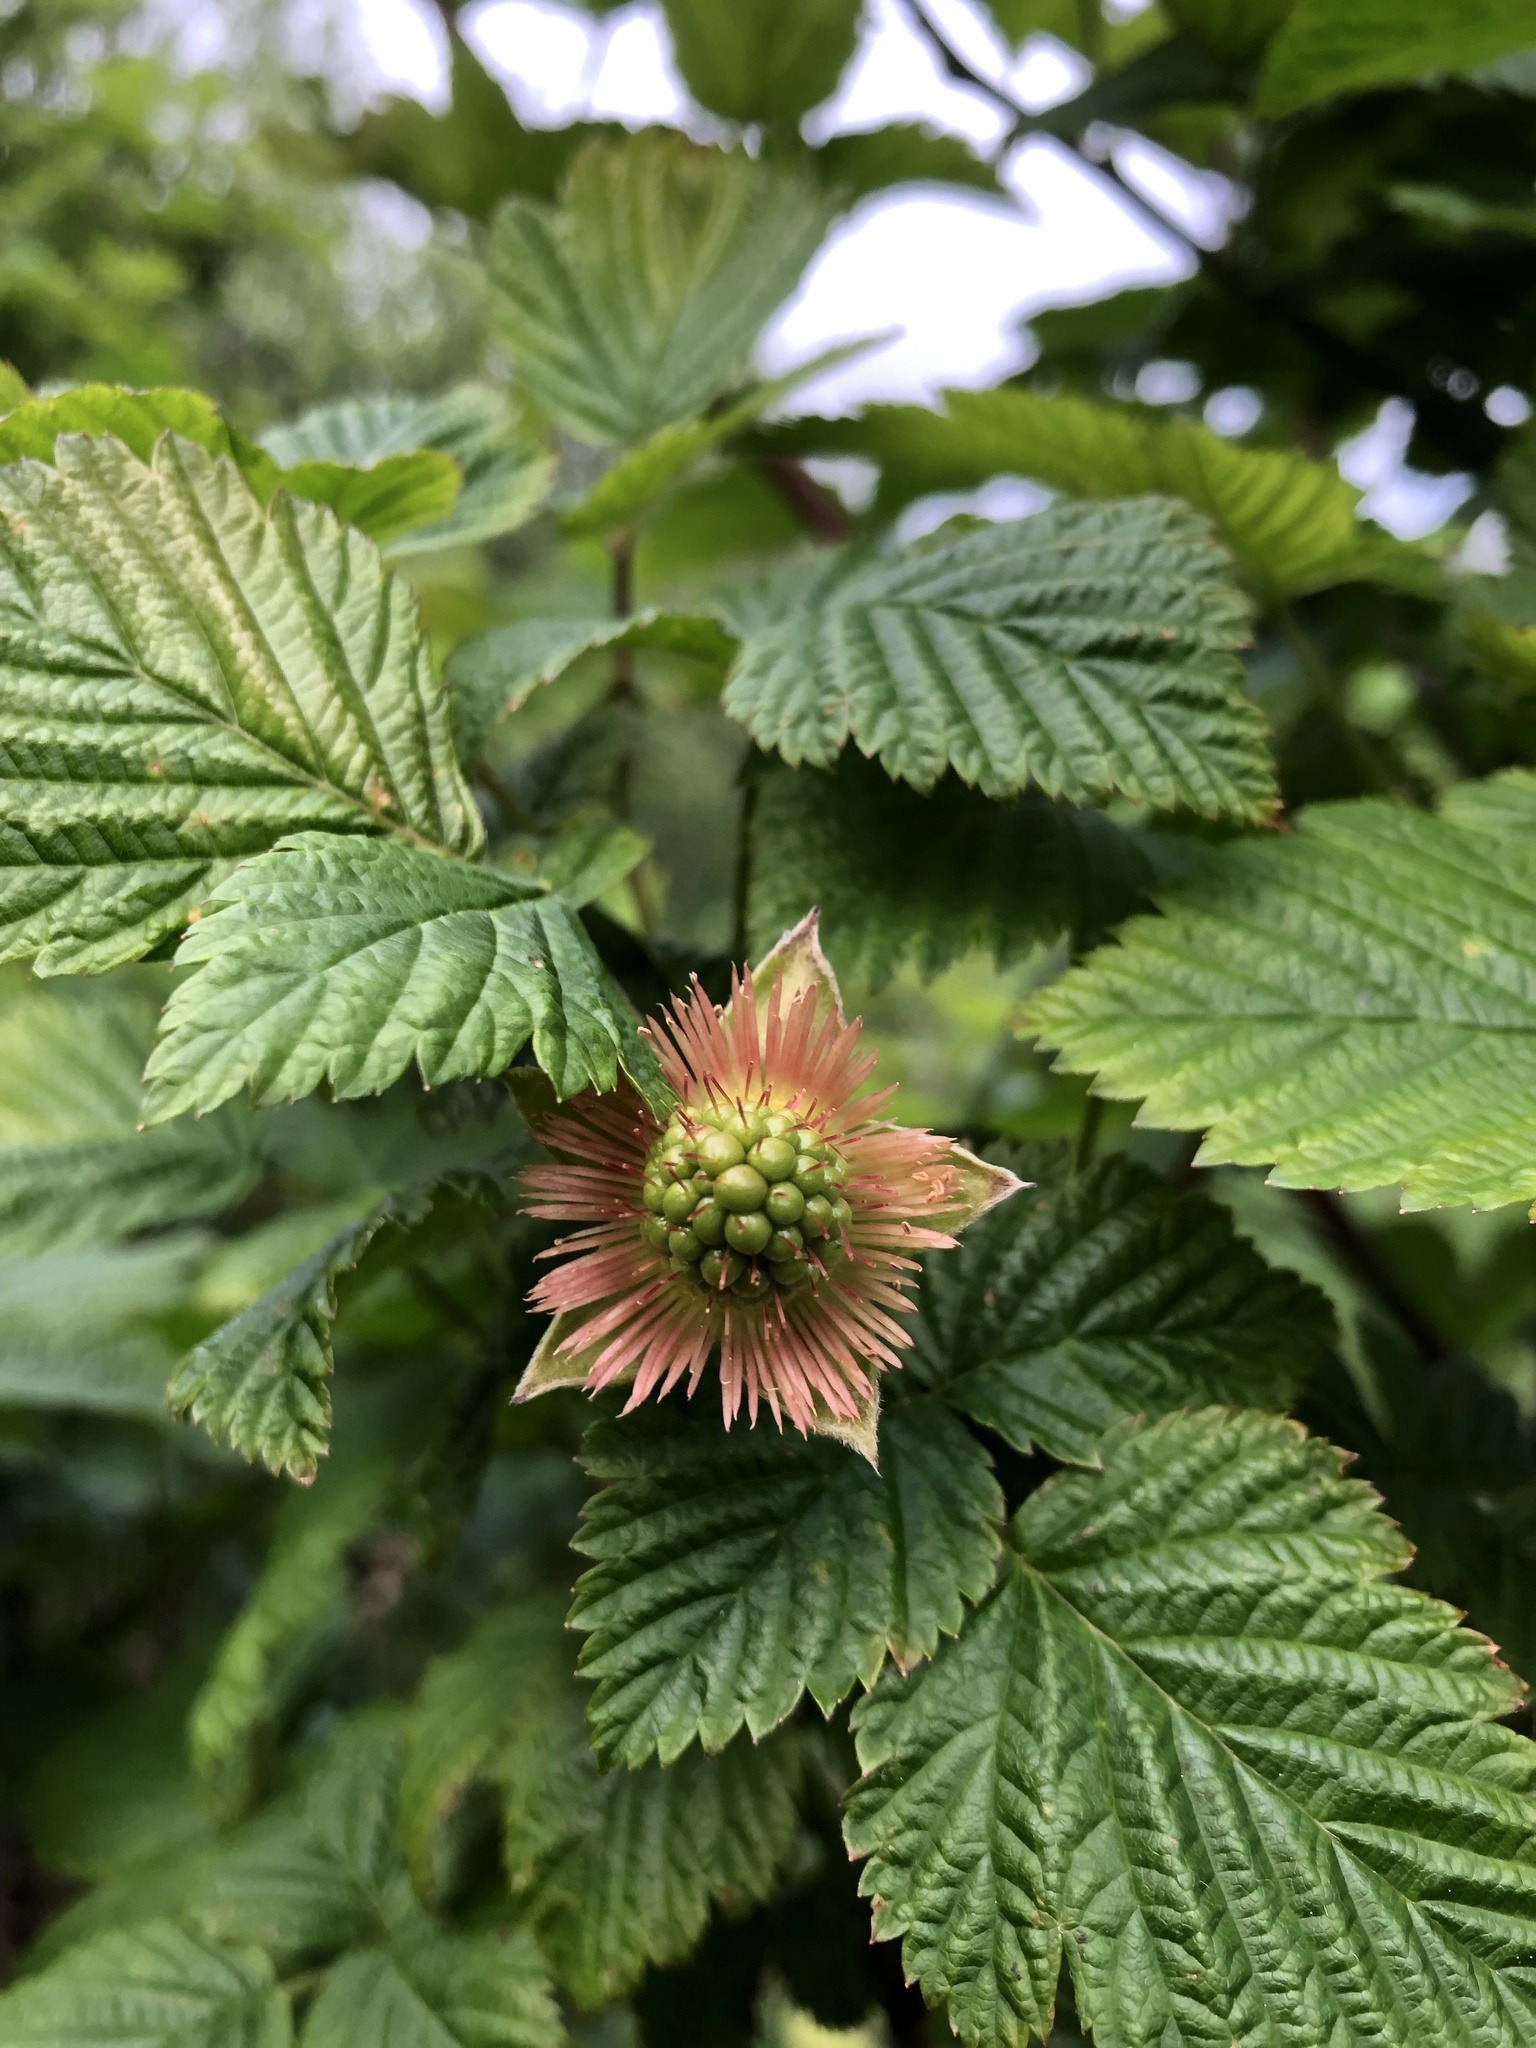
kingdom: Plantae
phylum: Tracheophyta
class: Magnoliopsida
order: Rosales
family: Rosaceae
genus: Rubus
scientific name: Rubus spectabilis
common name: Salmonberry
